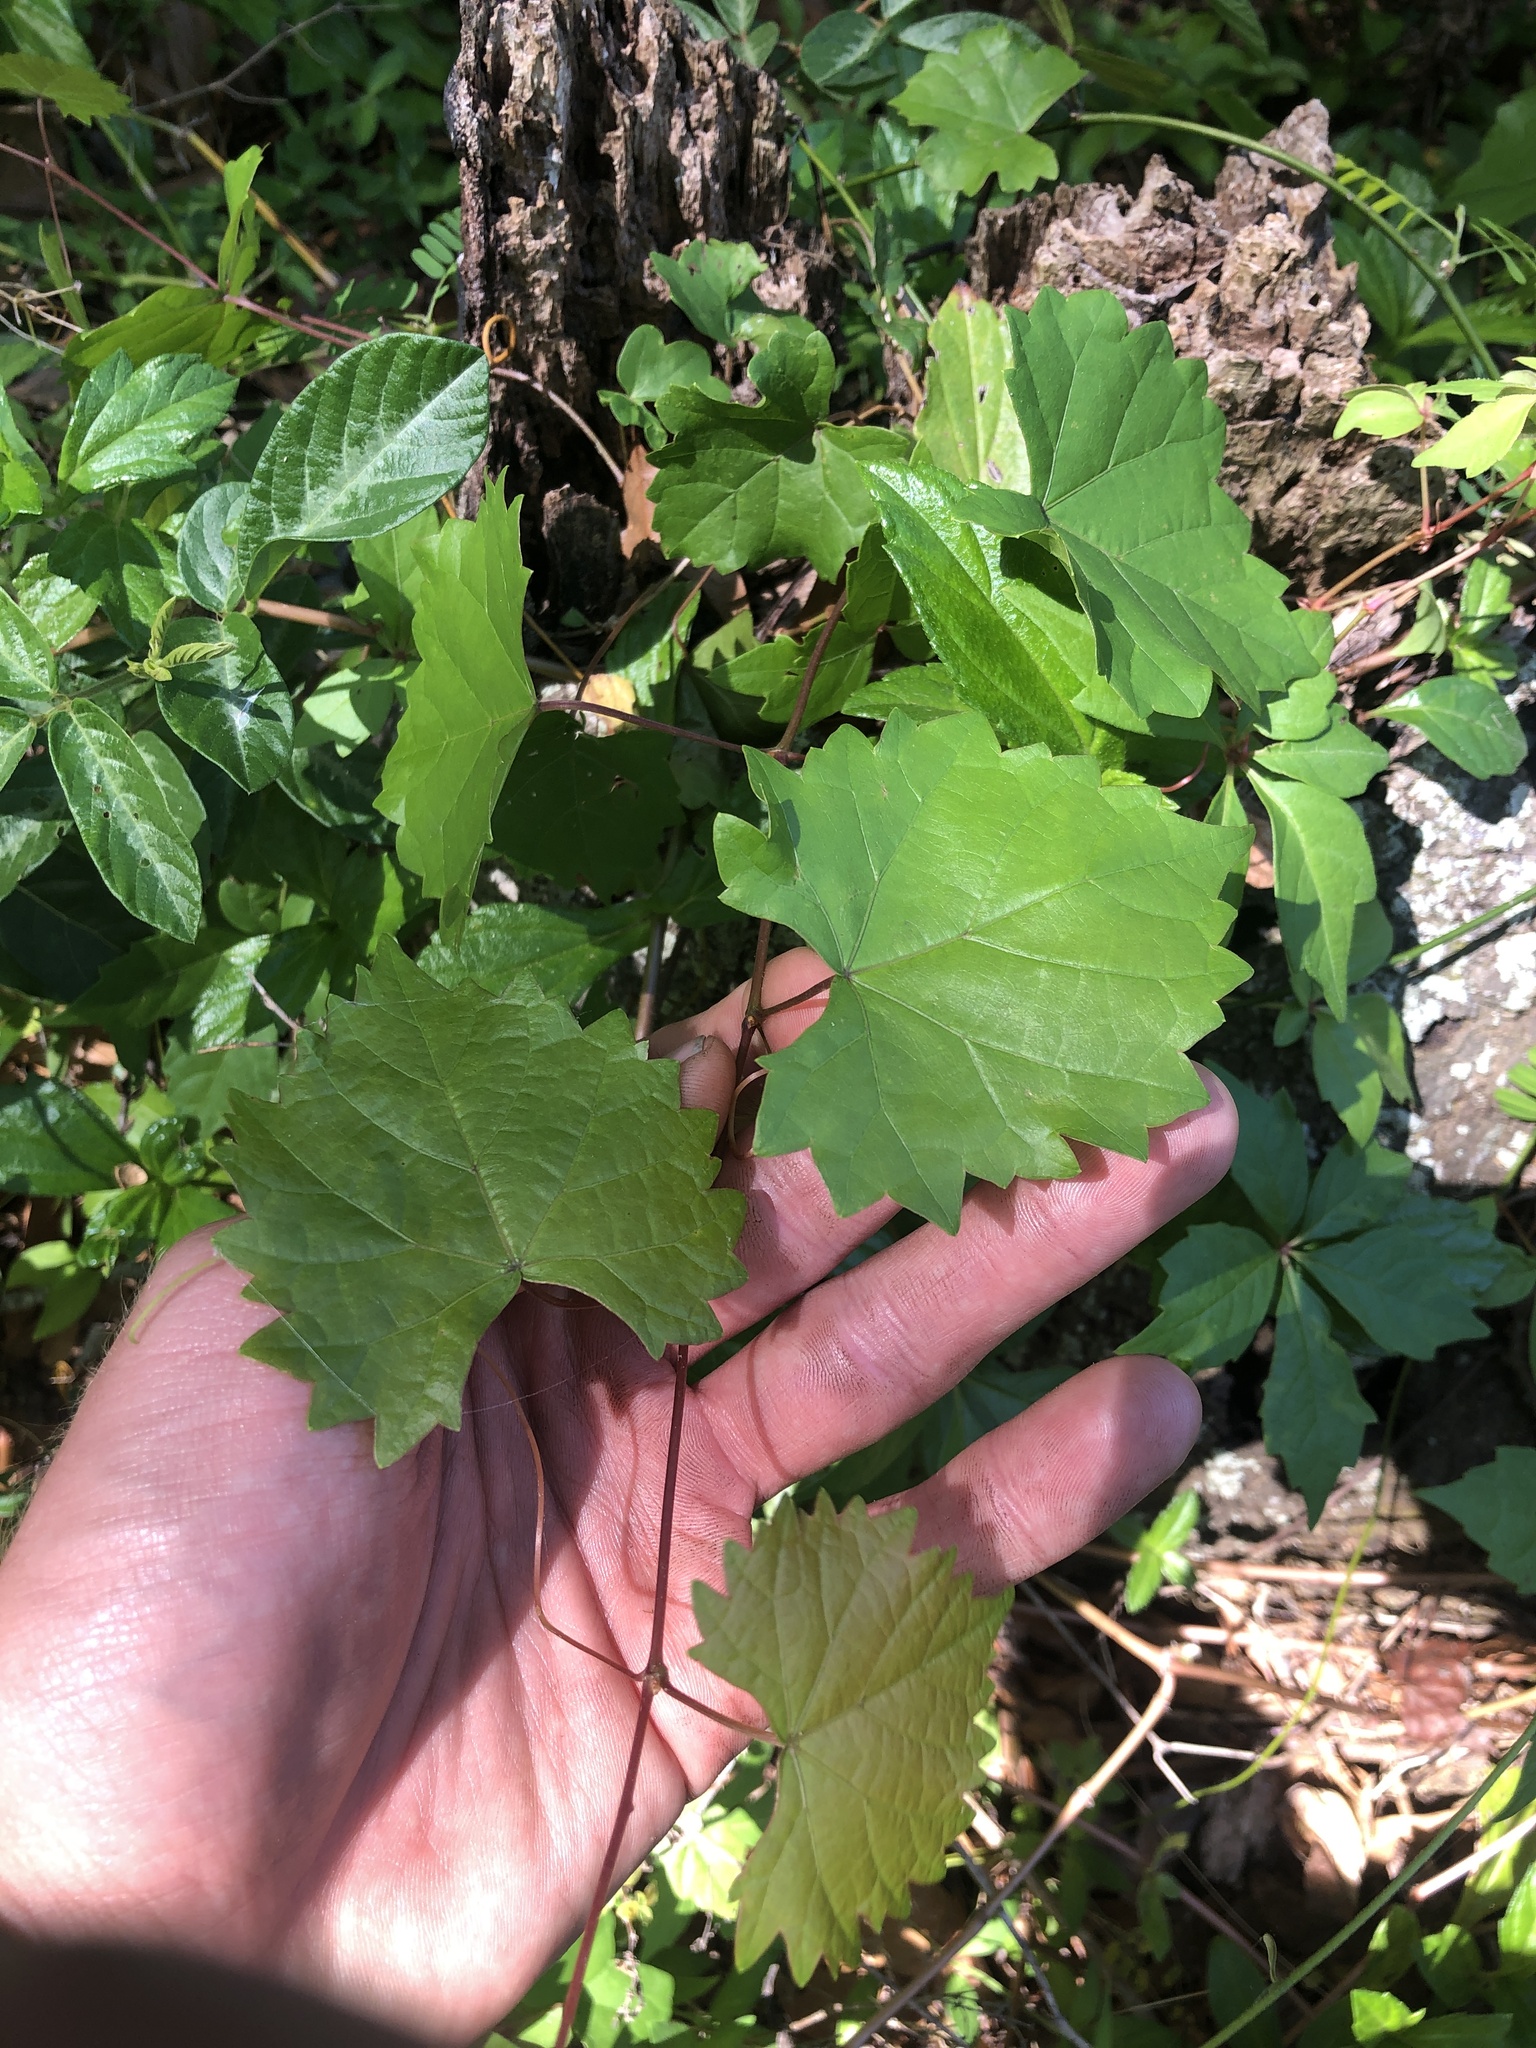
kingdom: Plantae
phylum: Tracheophyta
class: Magnoliopsida
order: Vitales
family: Vitaceae
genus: Vitis
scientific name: Vitis rotundifolia
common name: Muscadine grape
